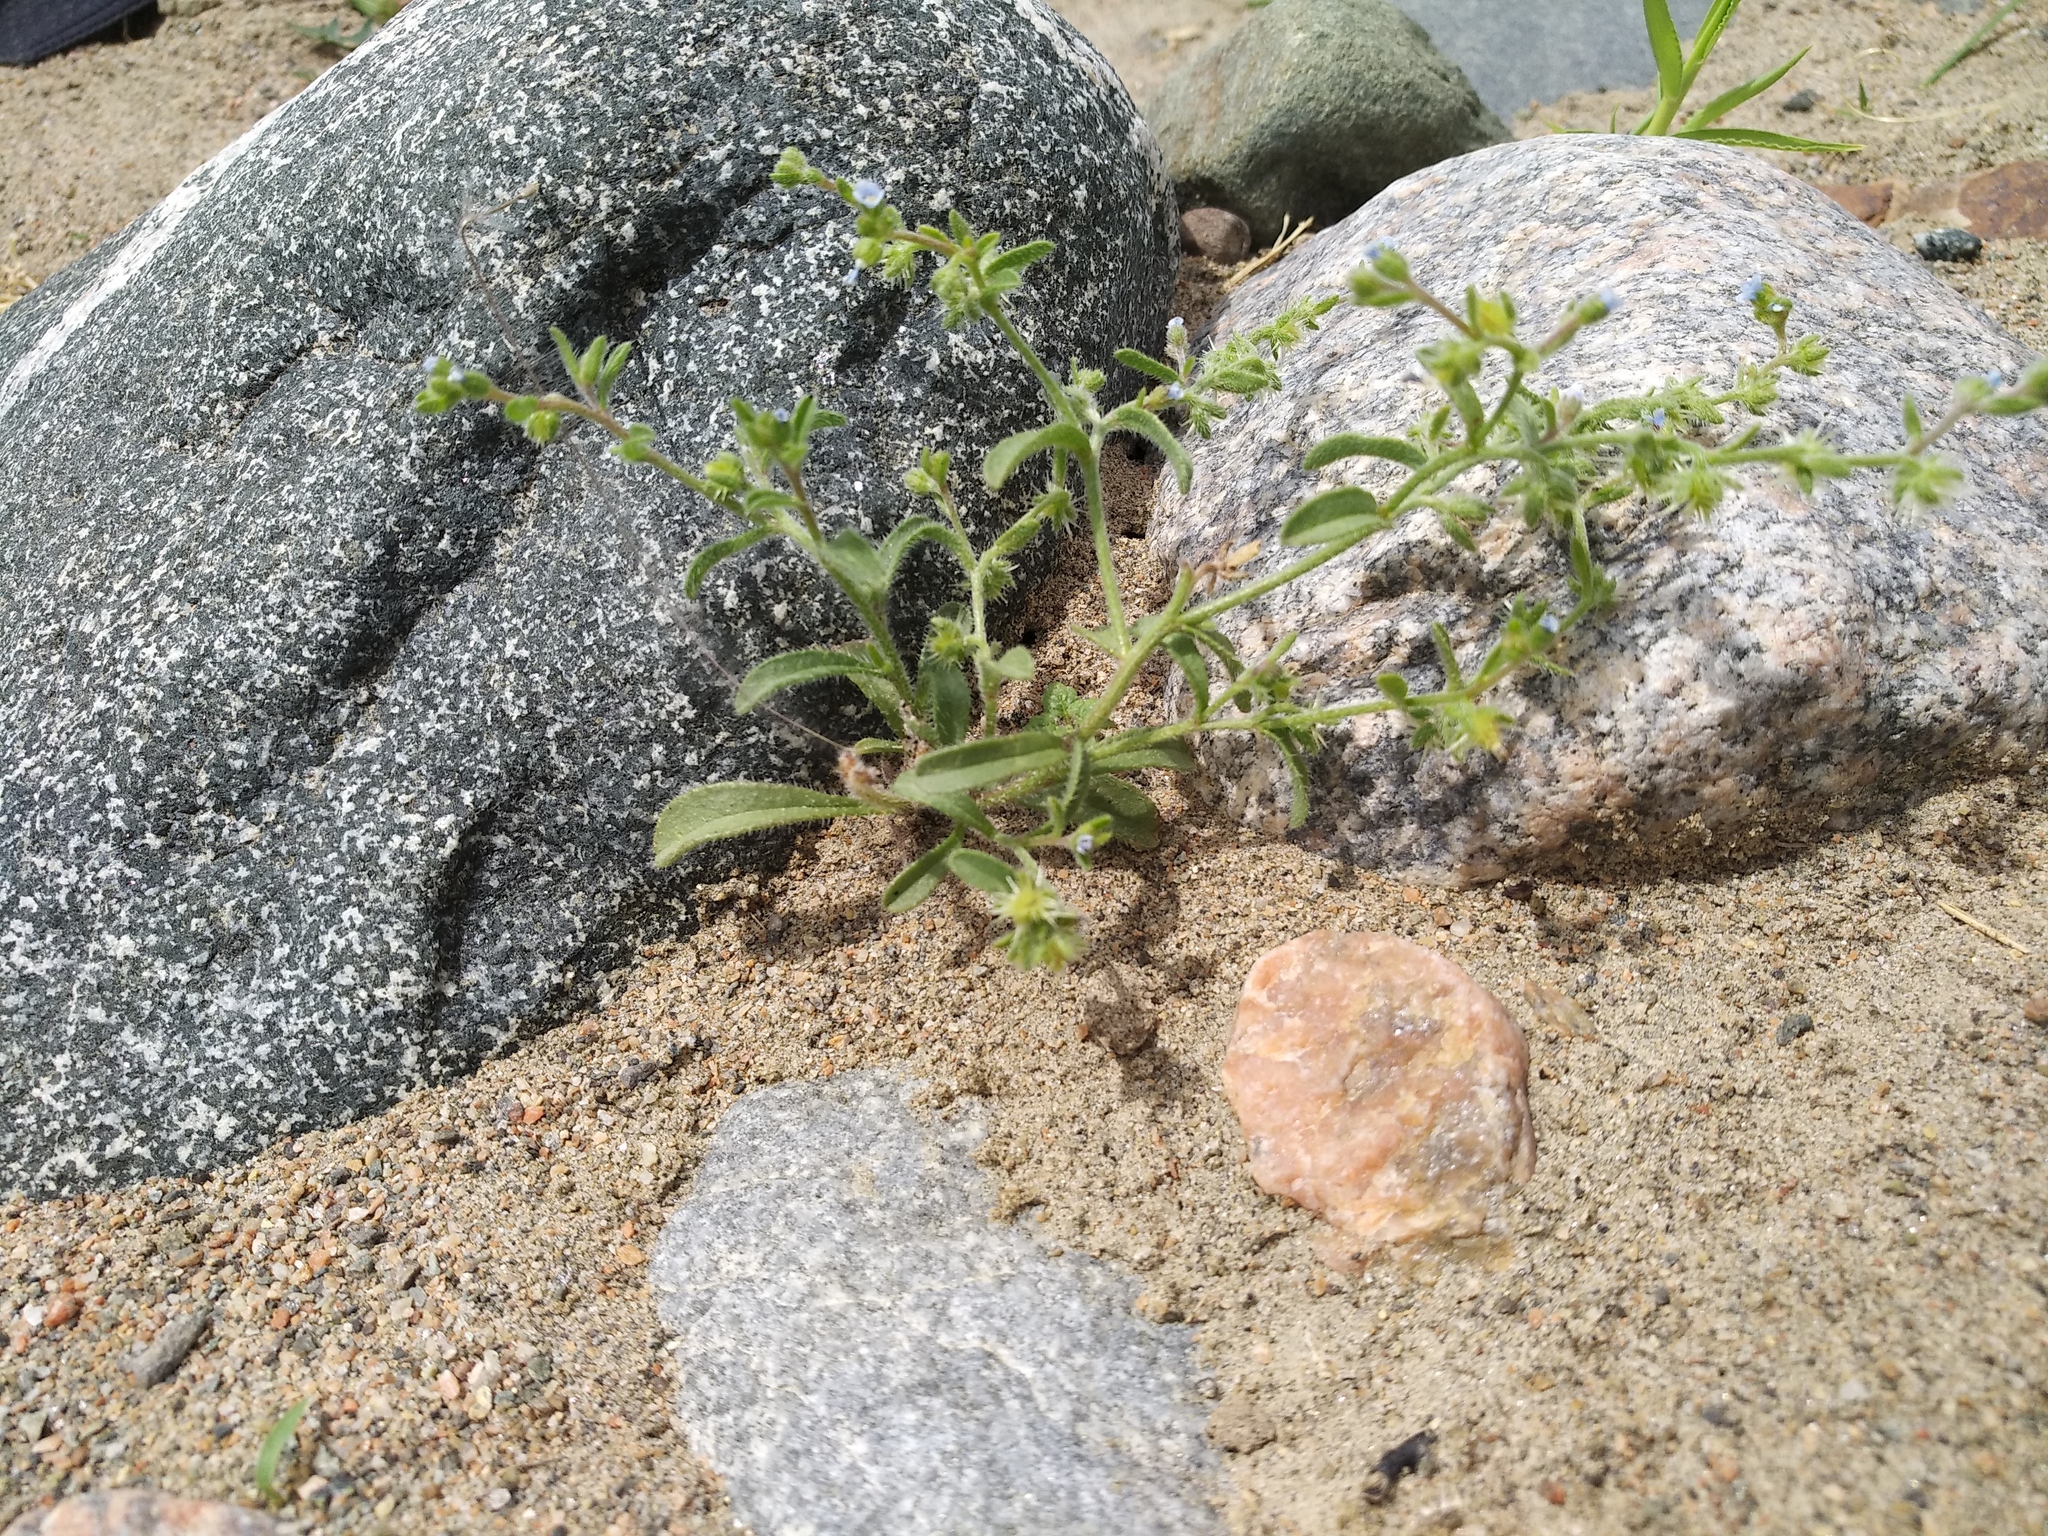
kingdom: Plantae
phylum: Tracheophyta
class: Magnoliopsida
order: Boraginales
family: Boraginaceae
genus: Lappula
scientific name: Lappula squarrosa
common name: European stickseed
